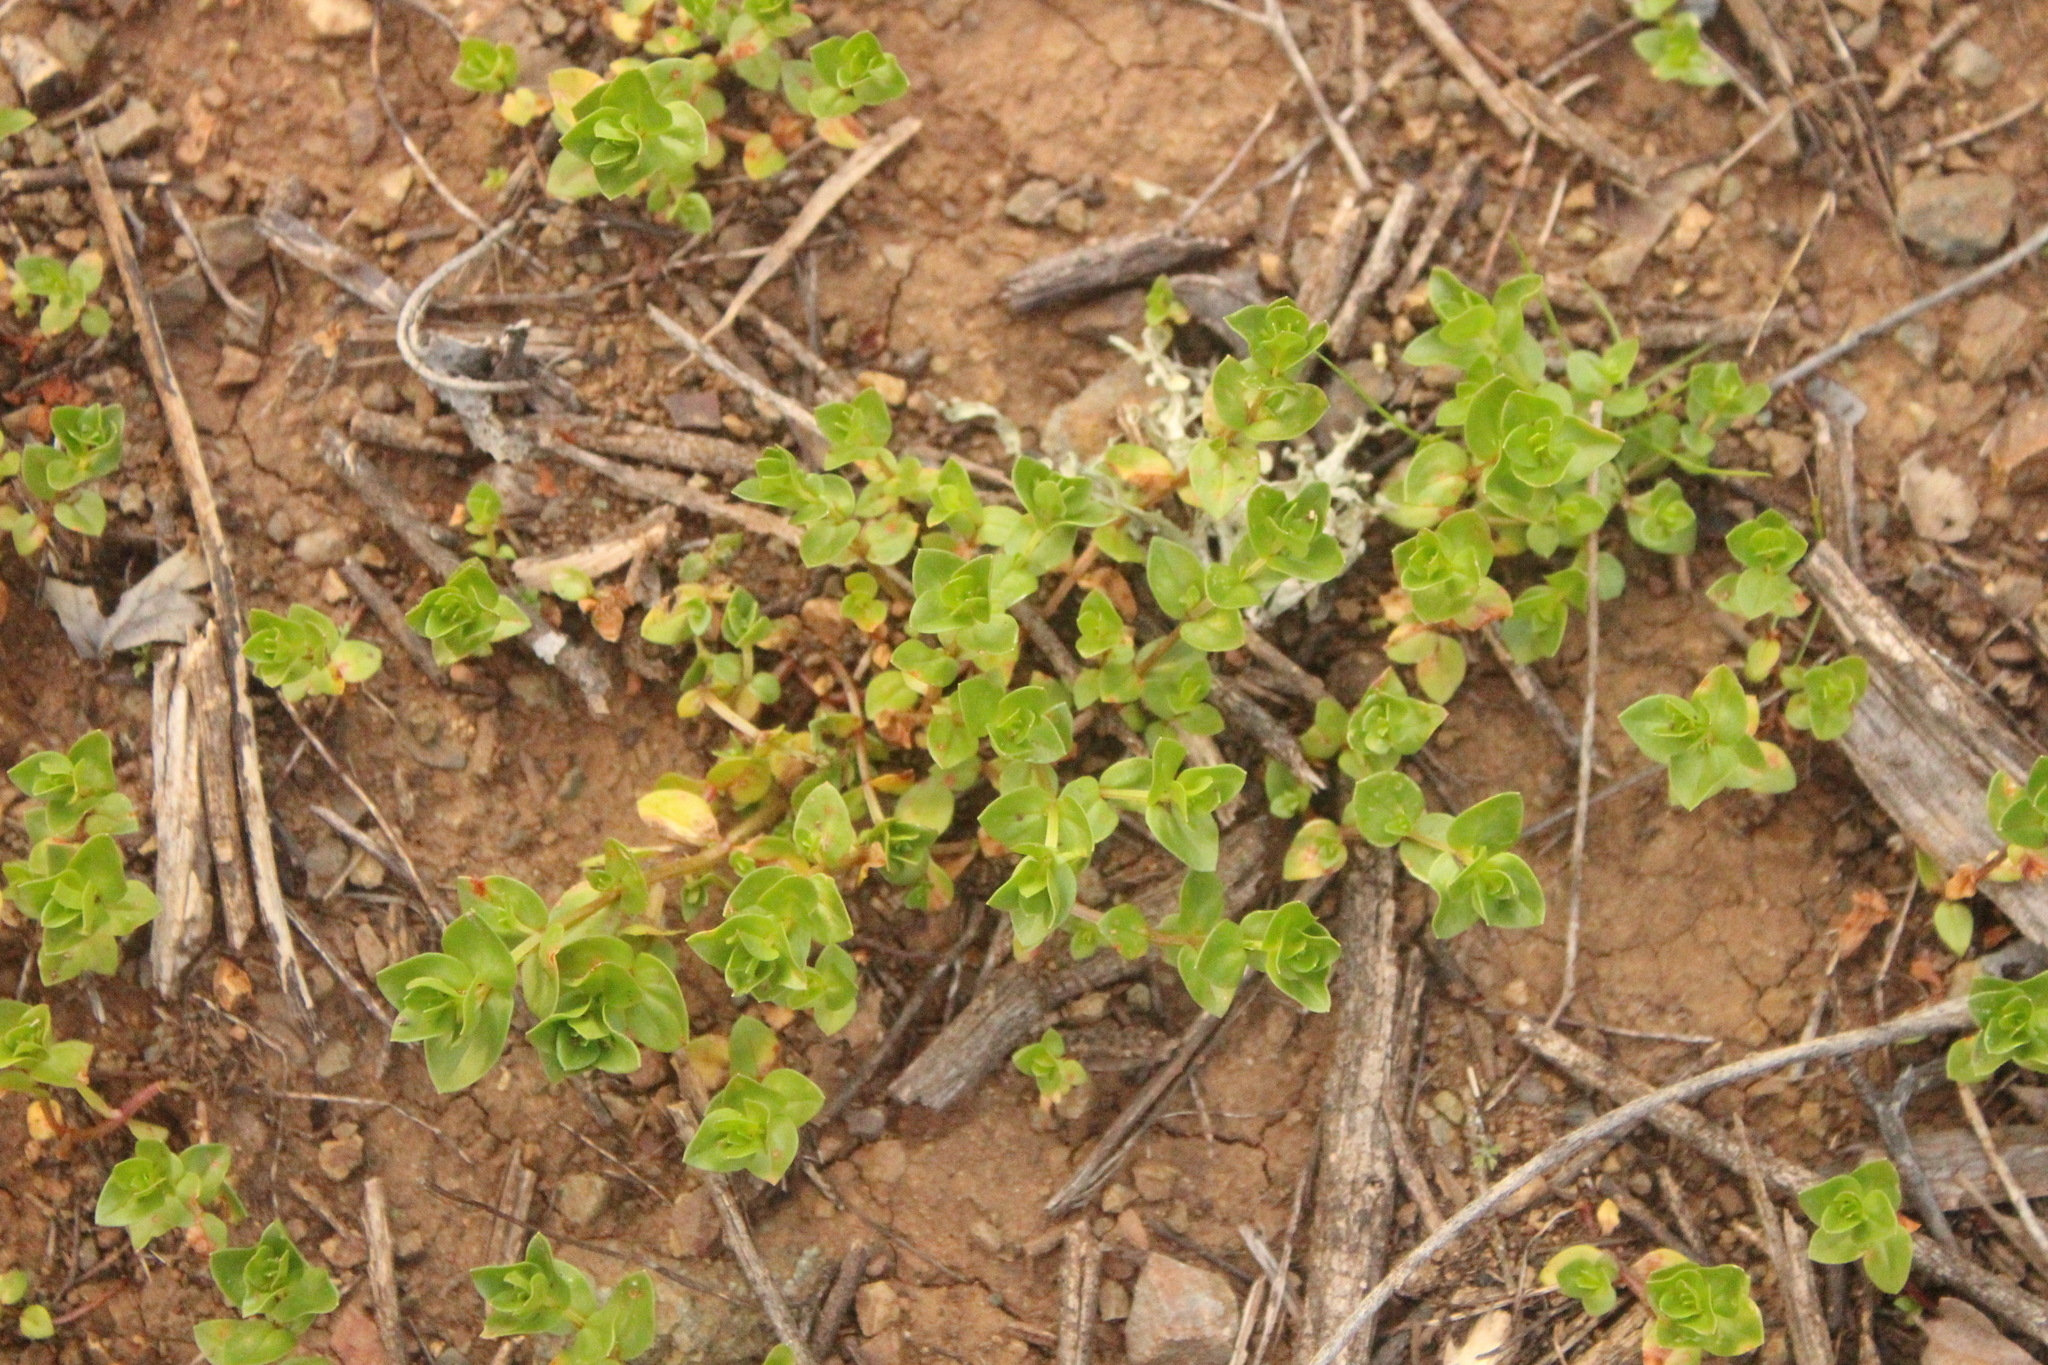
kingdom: Plantae
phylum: Tracheophyta
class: Magnoliopsida
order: Ericales
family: Primulaceae
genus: Lysimachia
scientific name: Lysimachia arvensis
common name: Scarlet pimpernel
